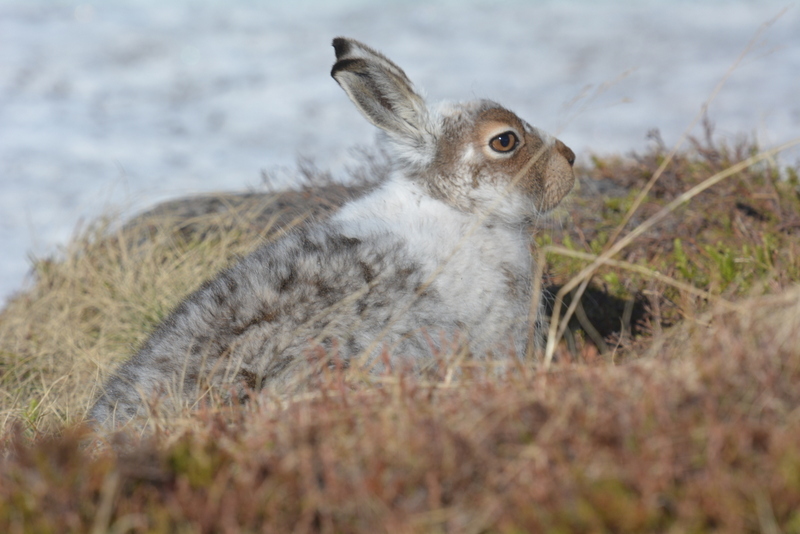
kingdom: Animalia
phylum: Chordata
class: Mammalia
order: Lagomorpha
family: Leporidae
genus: Lepus
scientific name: Lepus timidus
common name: Mountain hare
